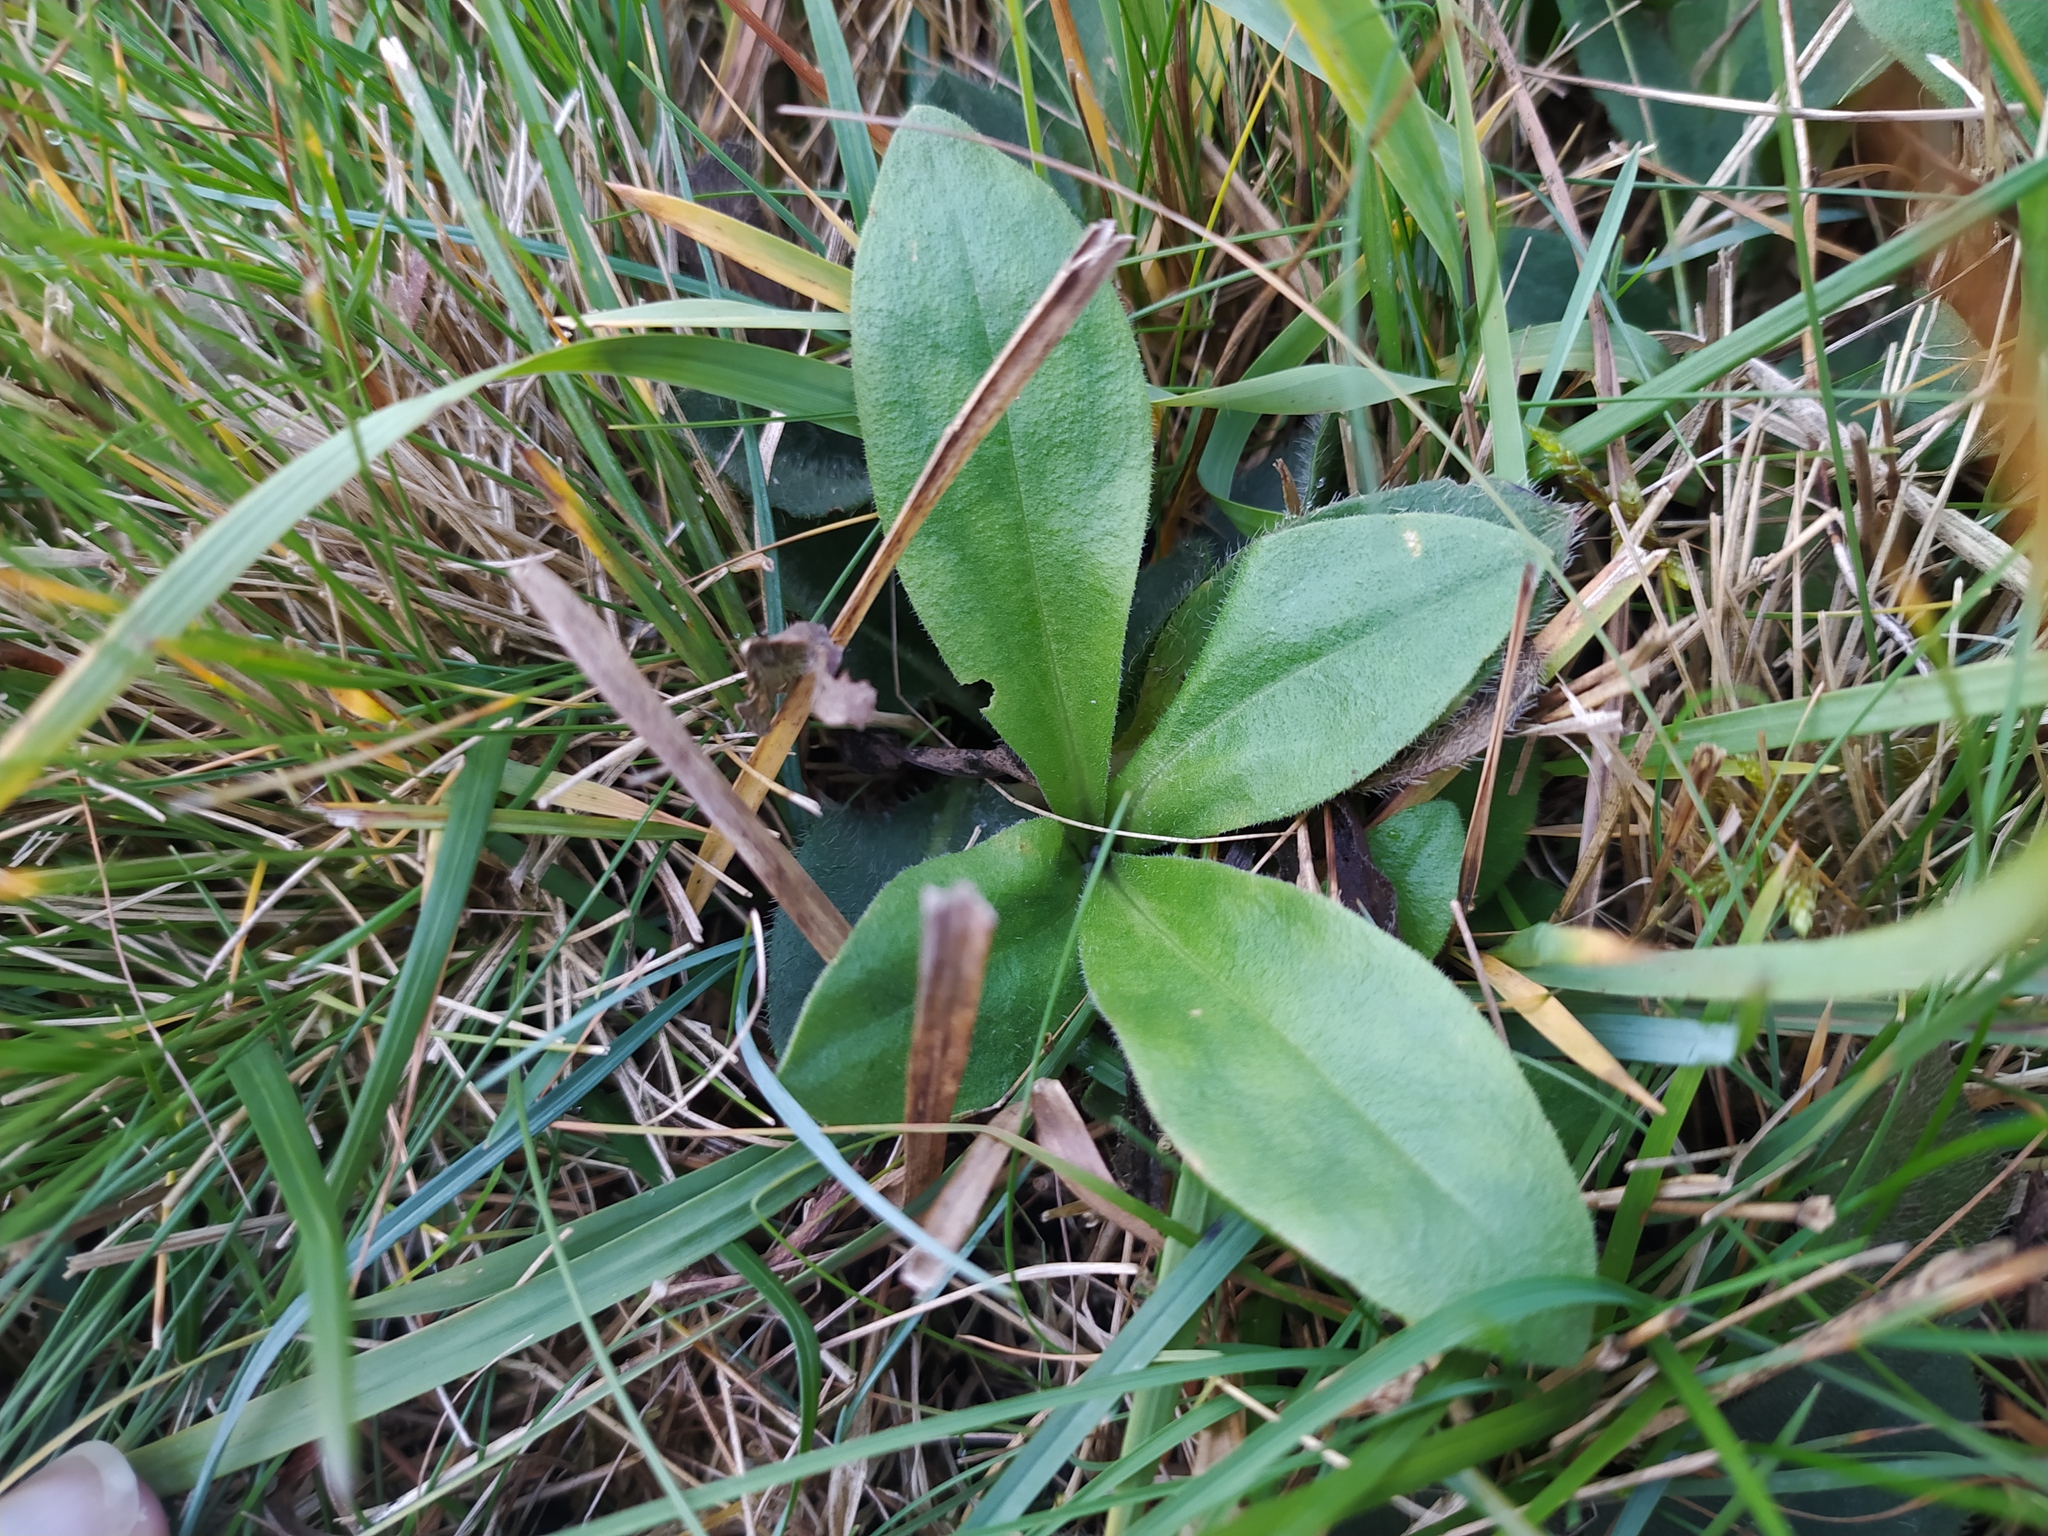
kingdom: Plantae
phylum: Tracheophyta
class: Magnoliopsida
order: Asterales
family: Asteraceae
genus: Arnica
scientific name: Arnica montana
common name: Leopard's bane
